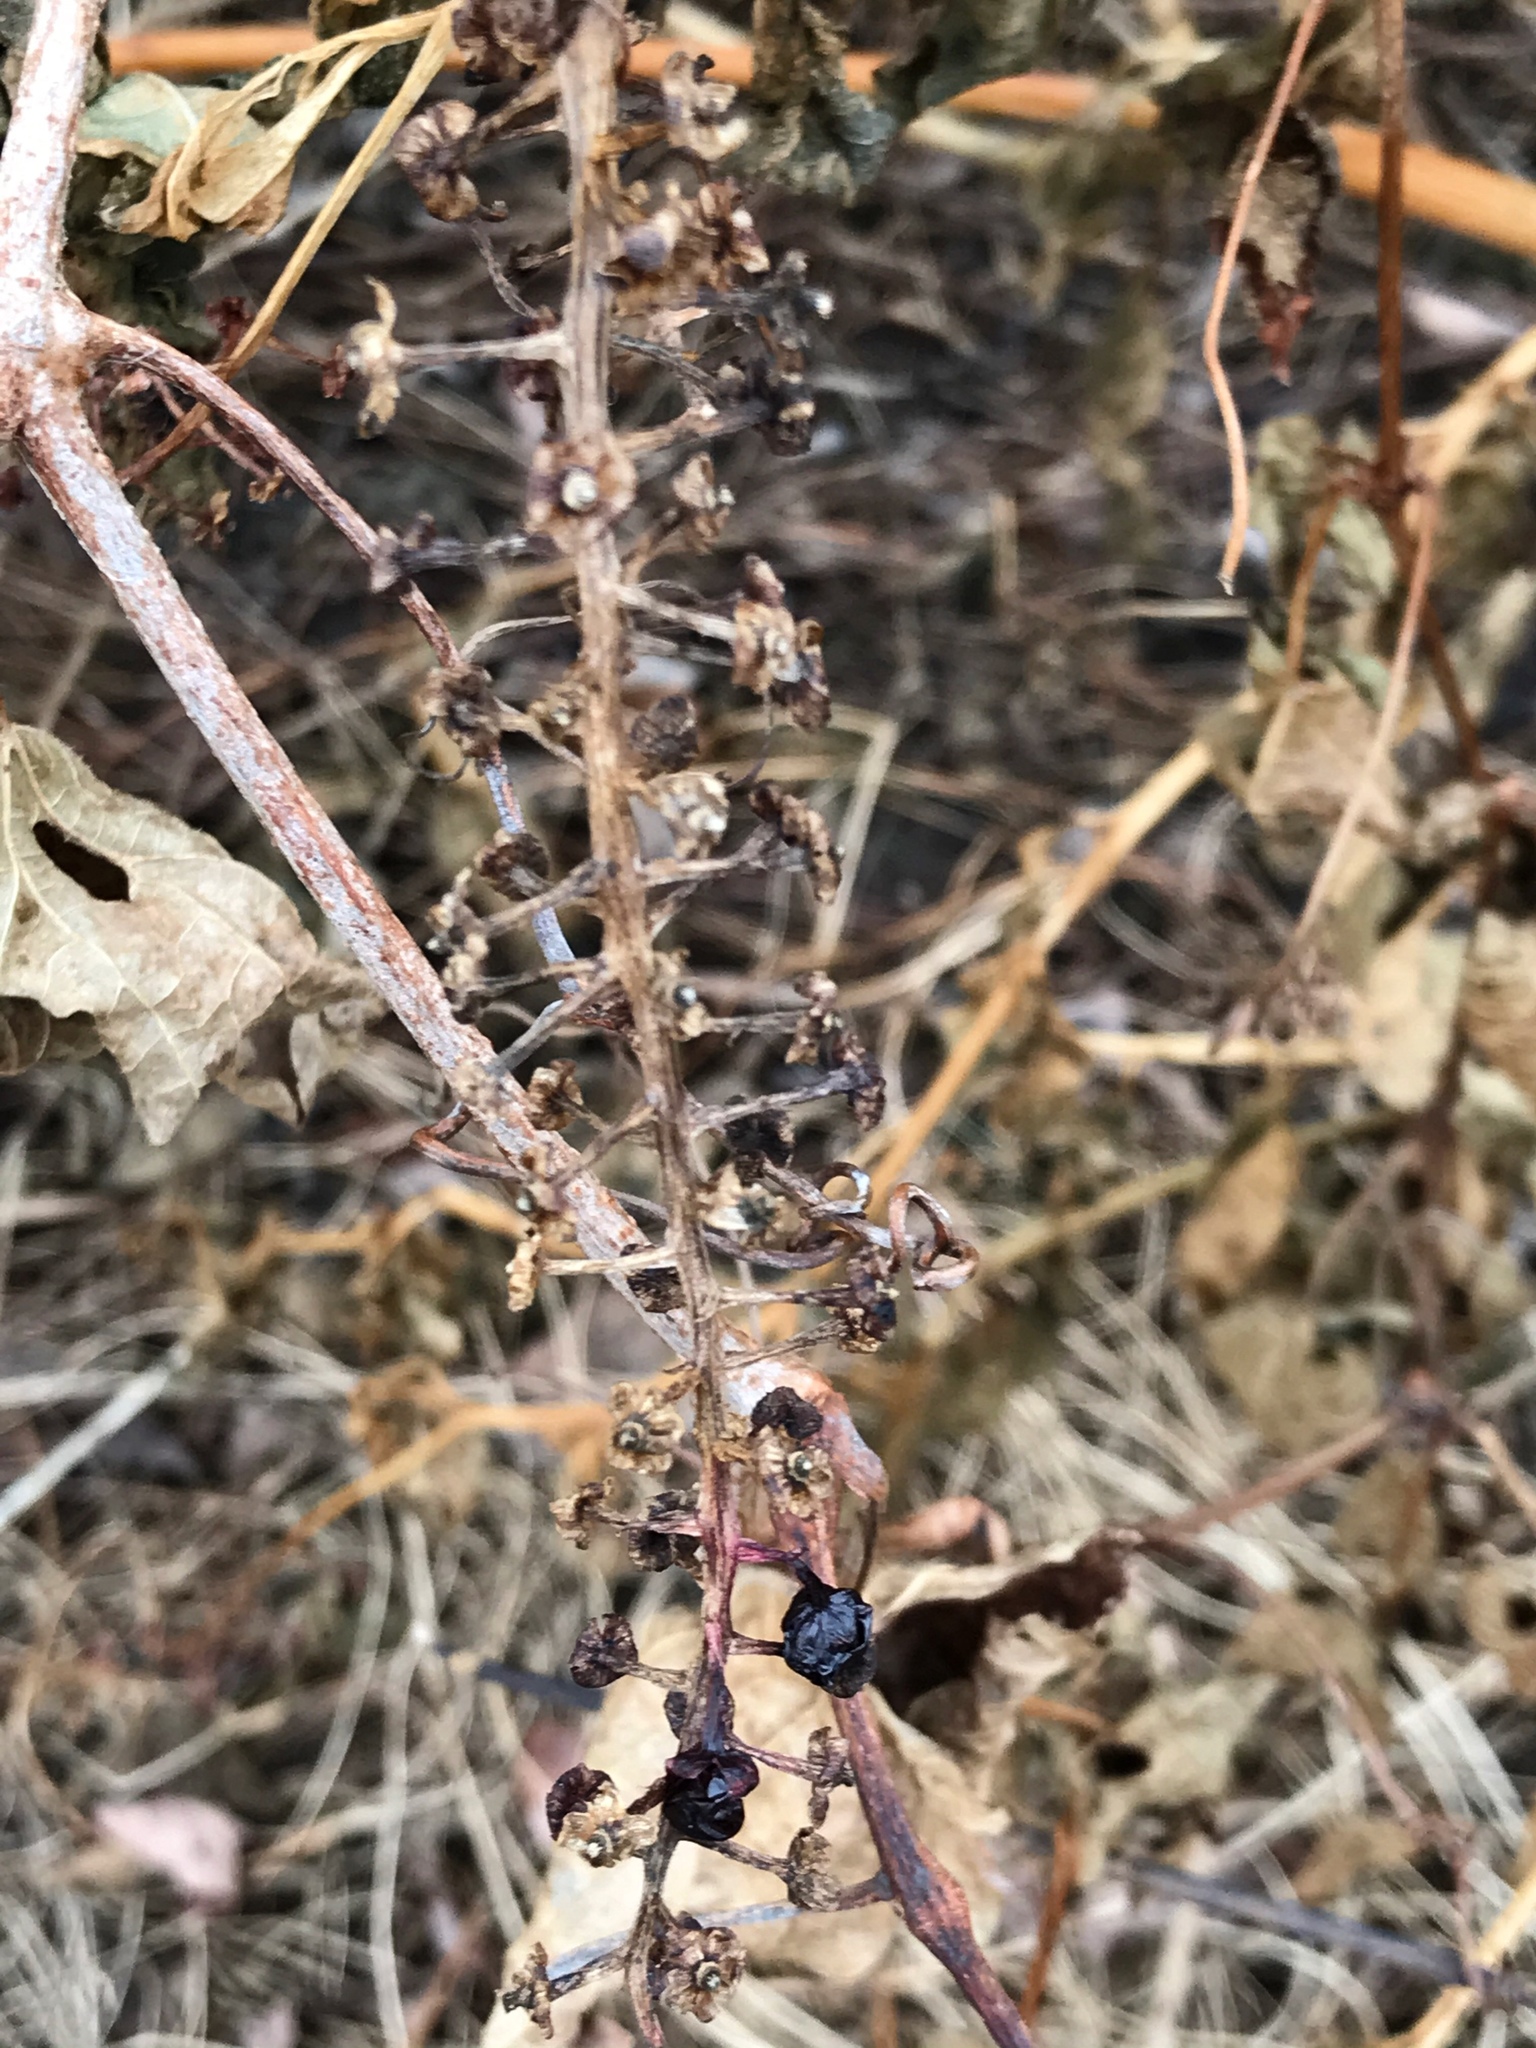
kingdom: Plantae
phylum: Tracheophyta
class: Magnoliopsida
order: Caryophyllales
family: Phytolaccaceae
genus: Phytolacca
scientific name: Phytolacca americana
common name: American pokeweed
